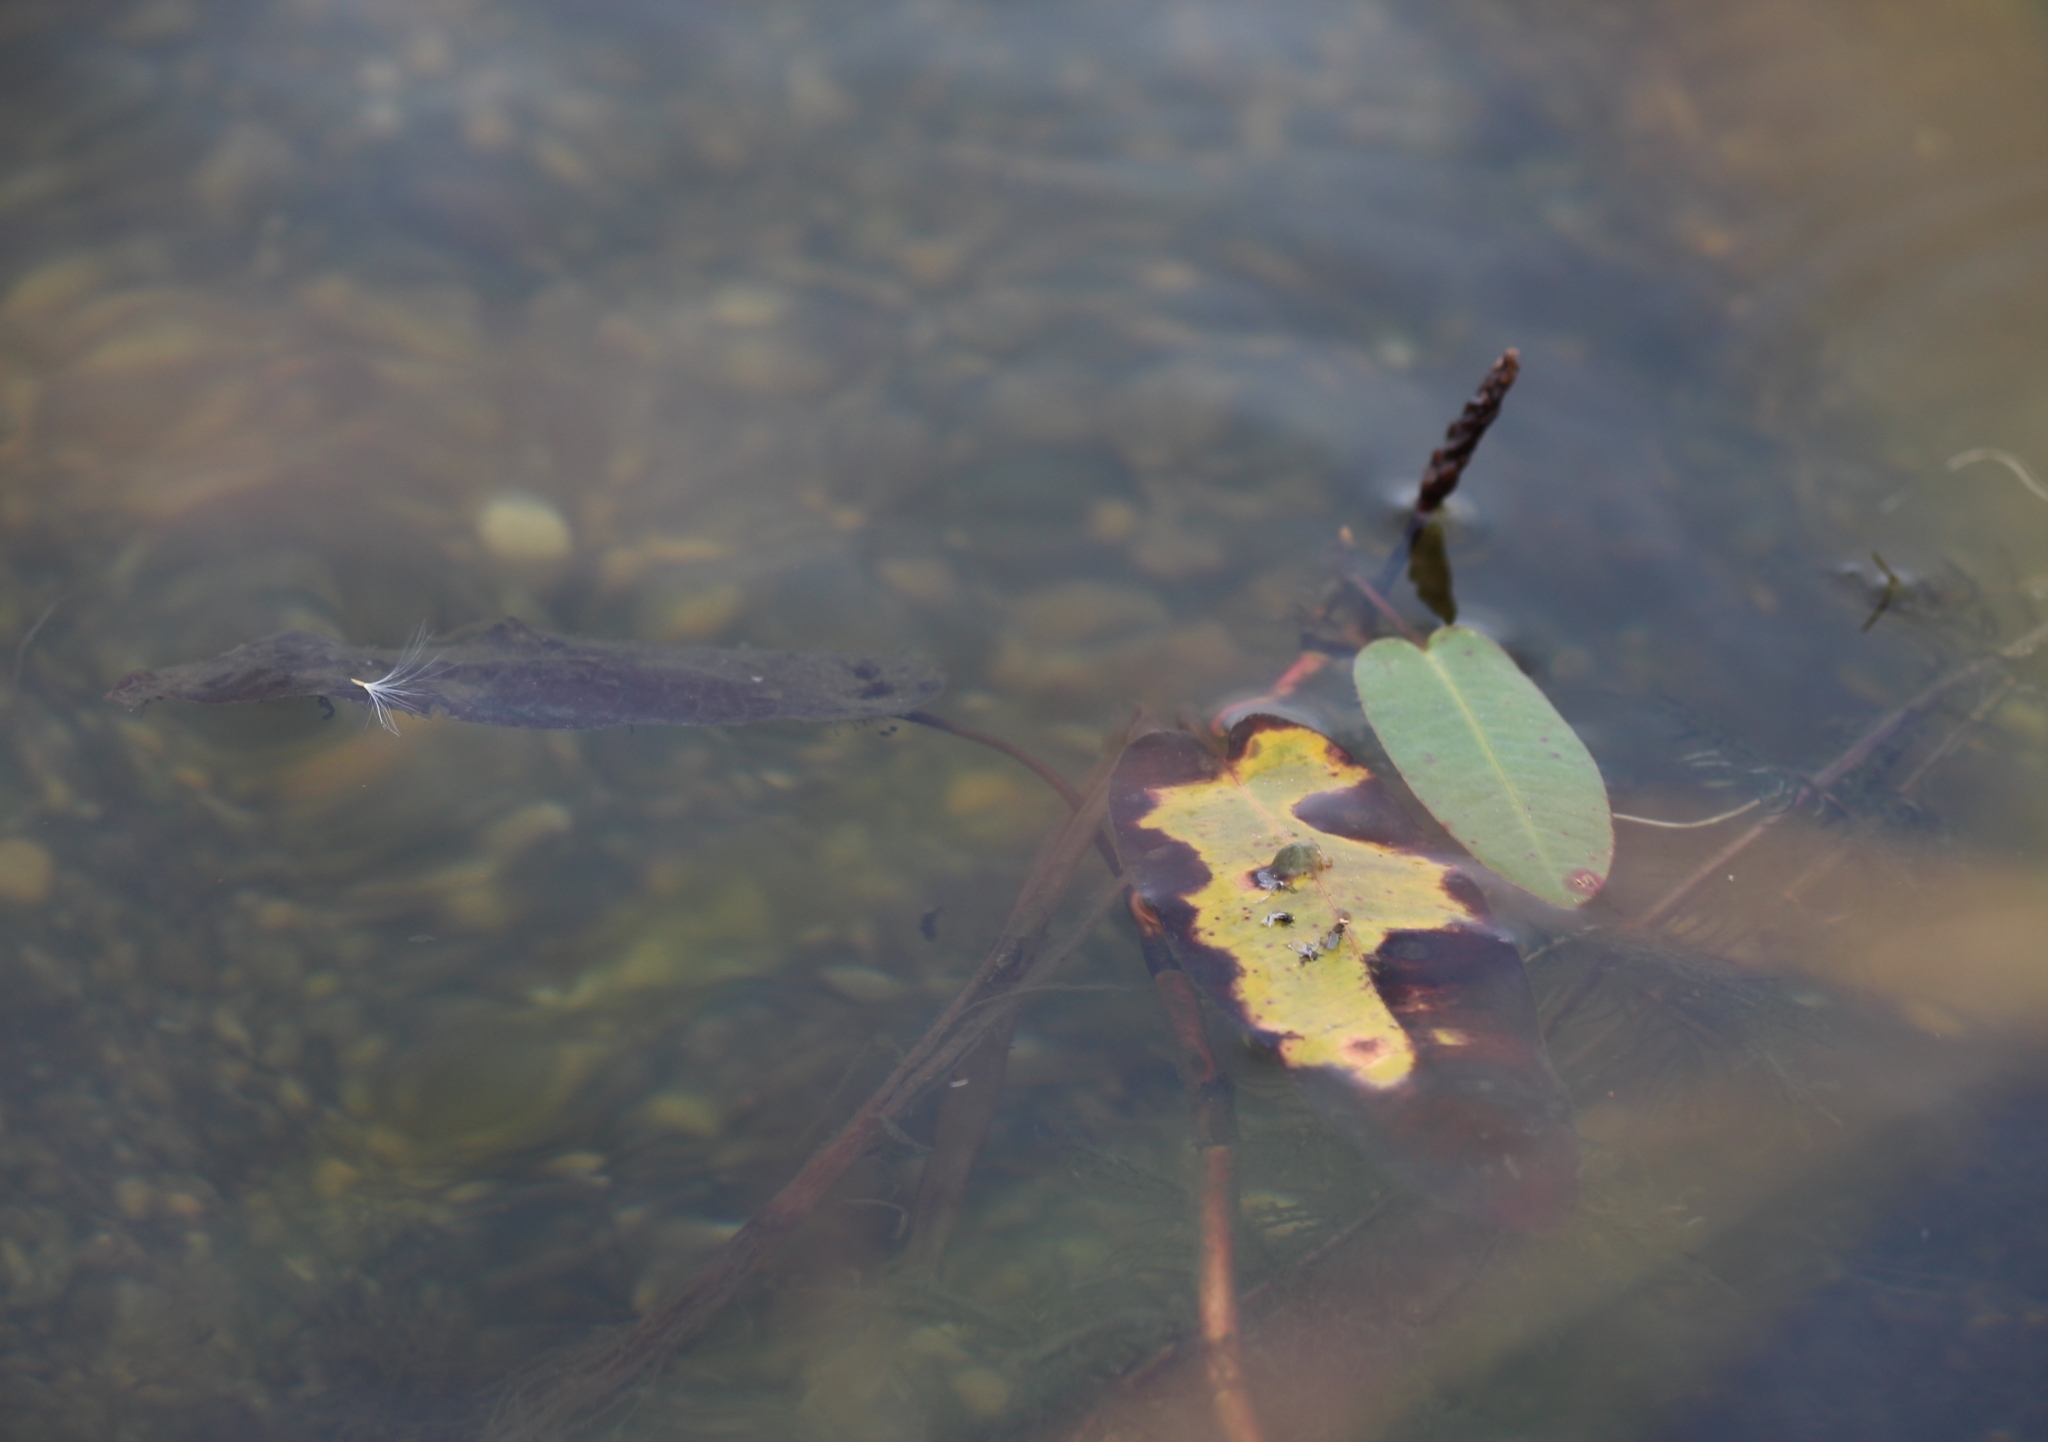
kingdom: Plantae
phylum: Tracheophyta
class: Magnoliopsida
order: Caryophyllales
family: Polygonaceae
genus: Persicaria
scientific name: Persicaria amphibia
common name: Amphibious bistort
